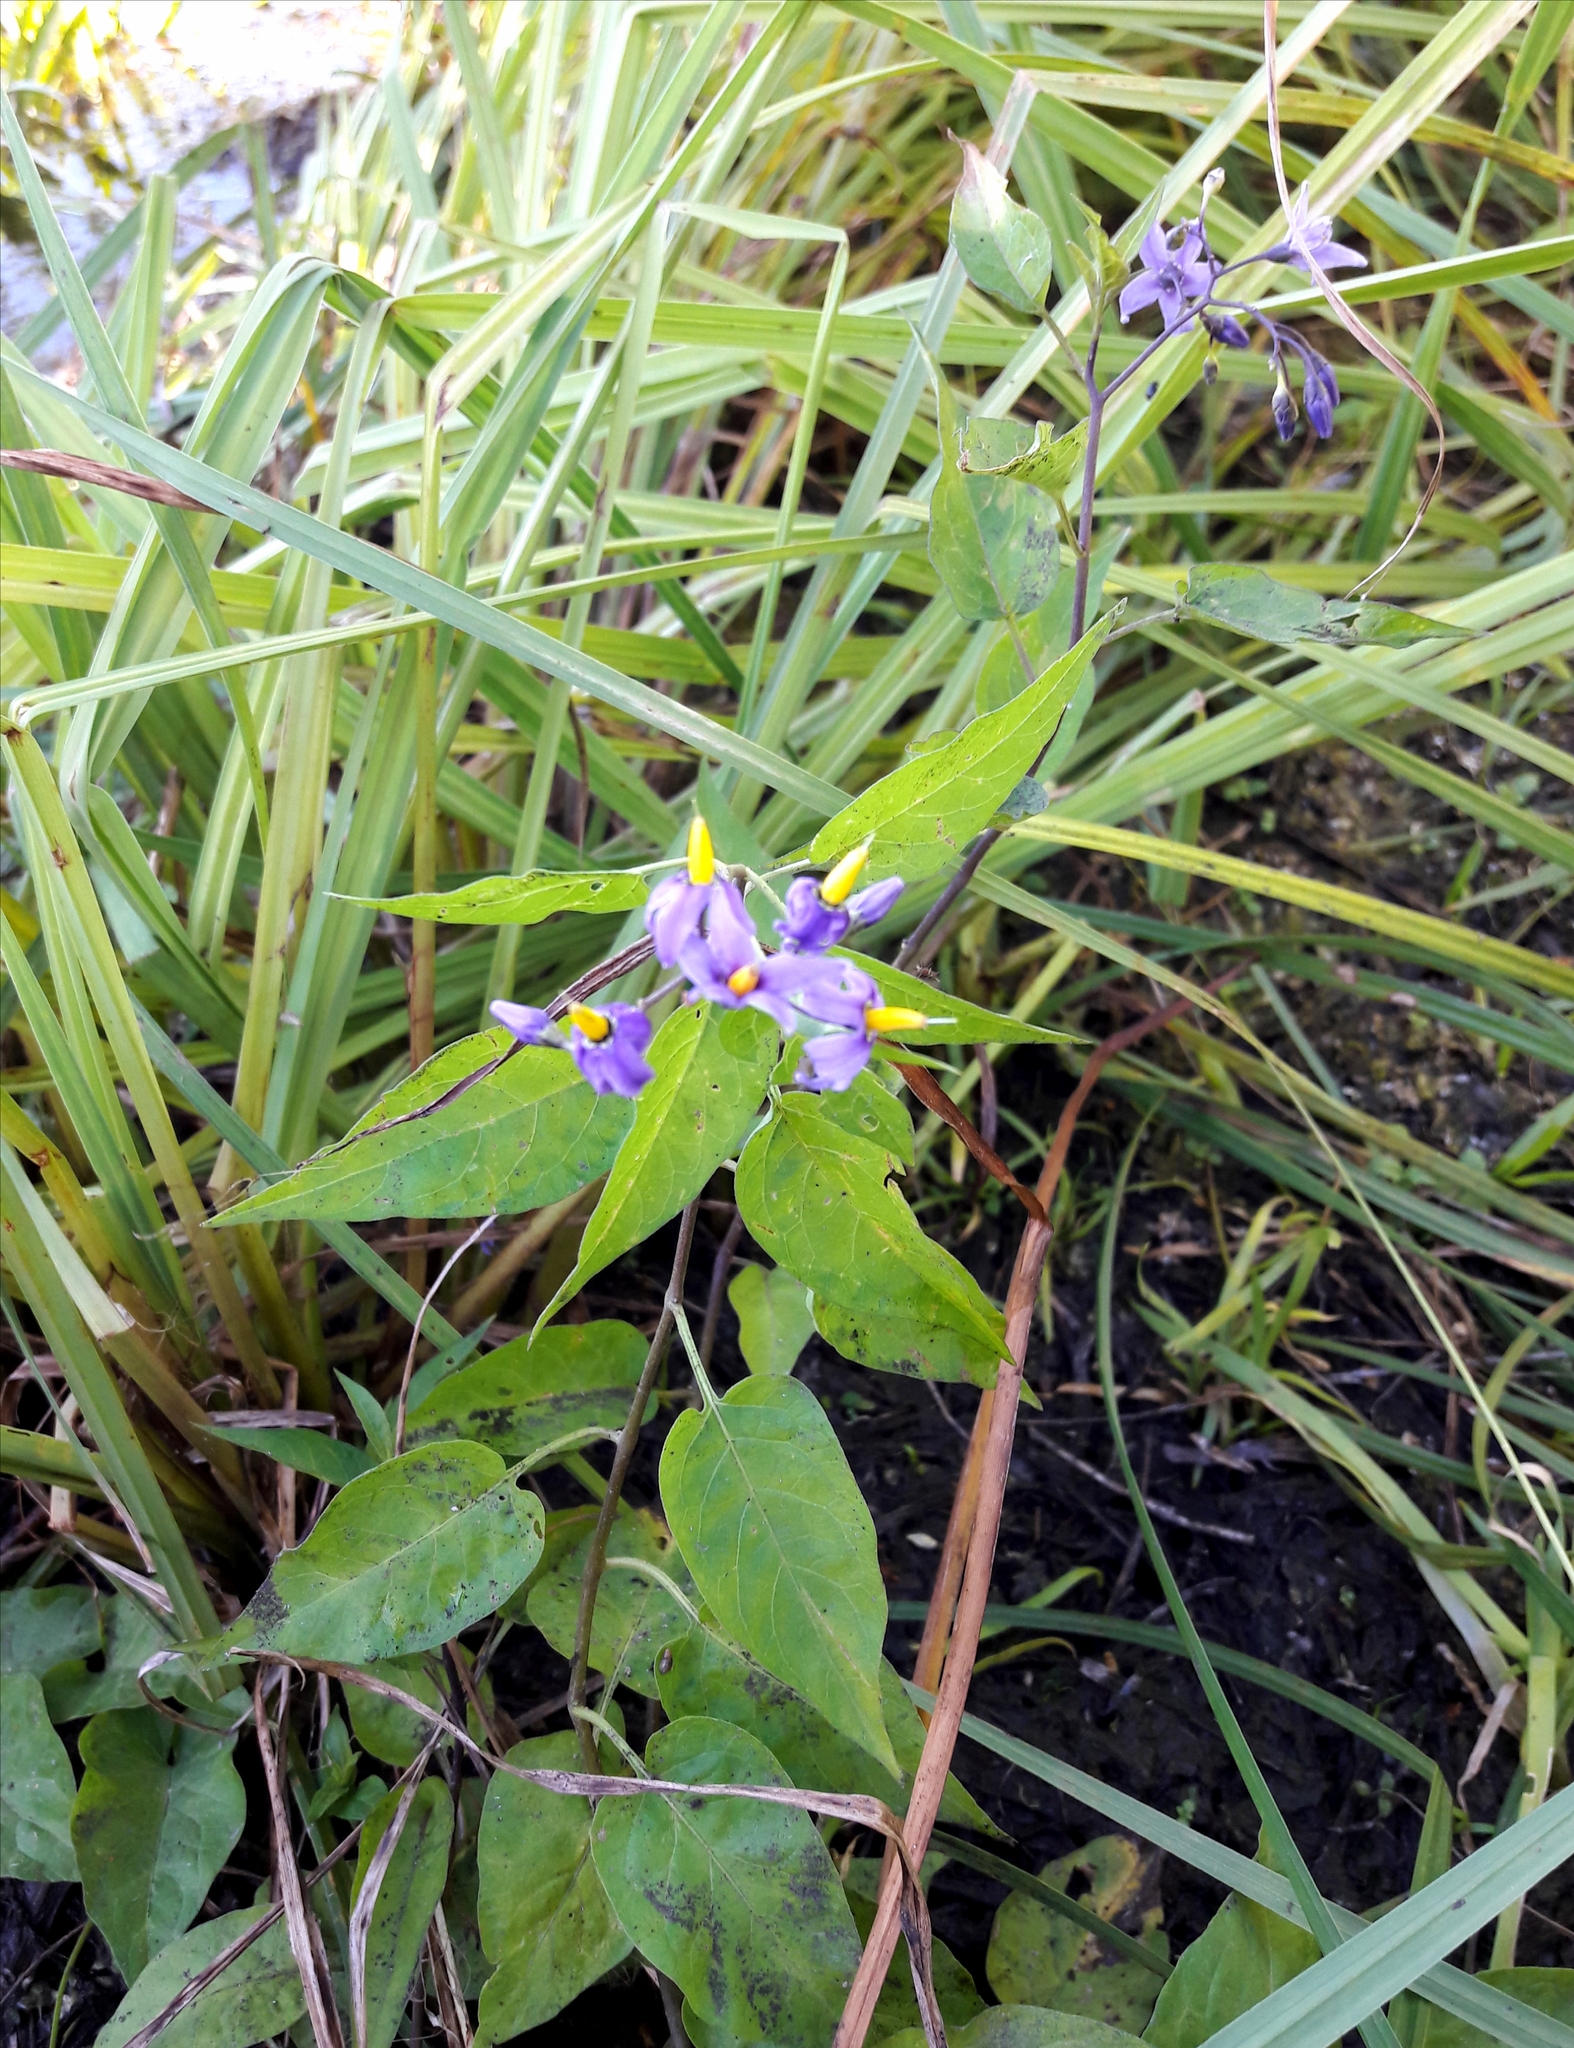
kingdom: Plantae
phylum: Tracheophyta
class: Magnoliopsida
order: Solanales
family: Solanaceae
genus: Solanum
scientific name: Solanum dulcamara
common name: Climbing nightshade
